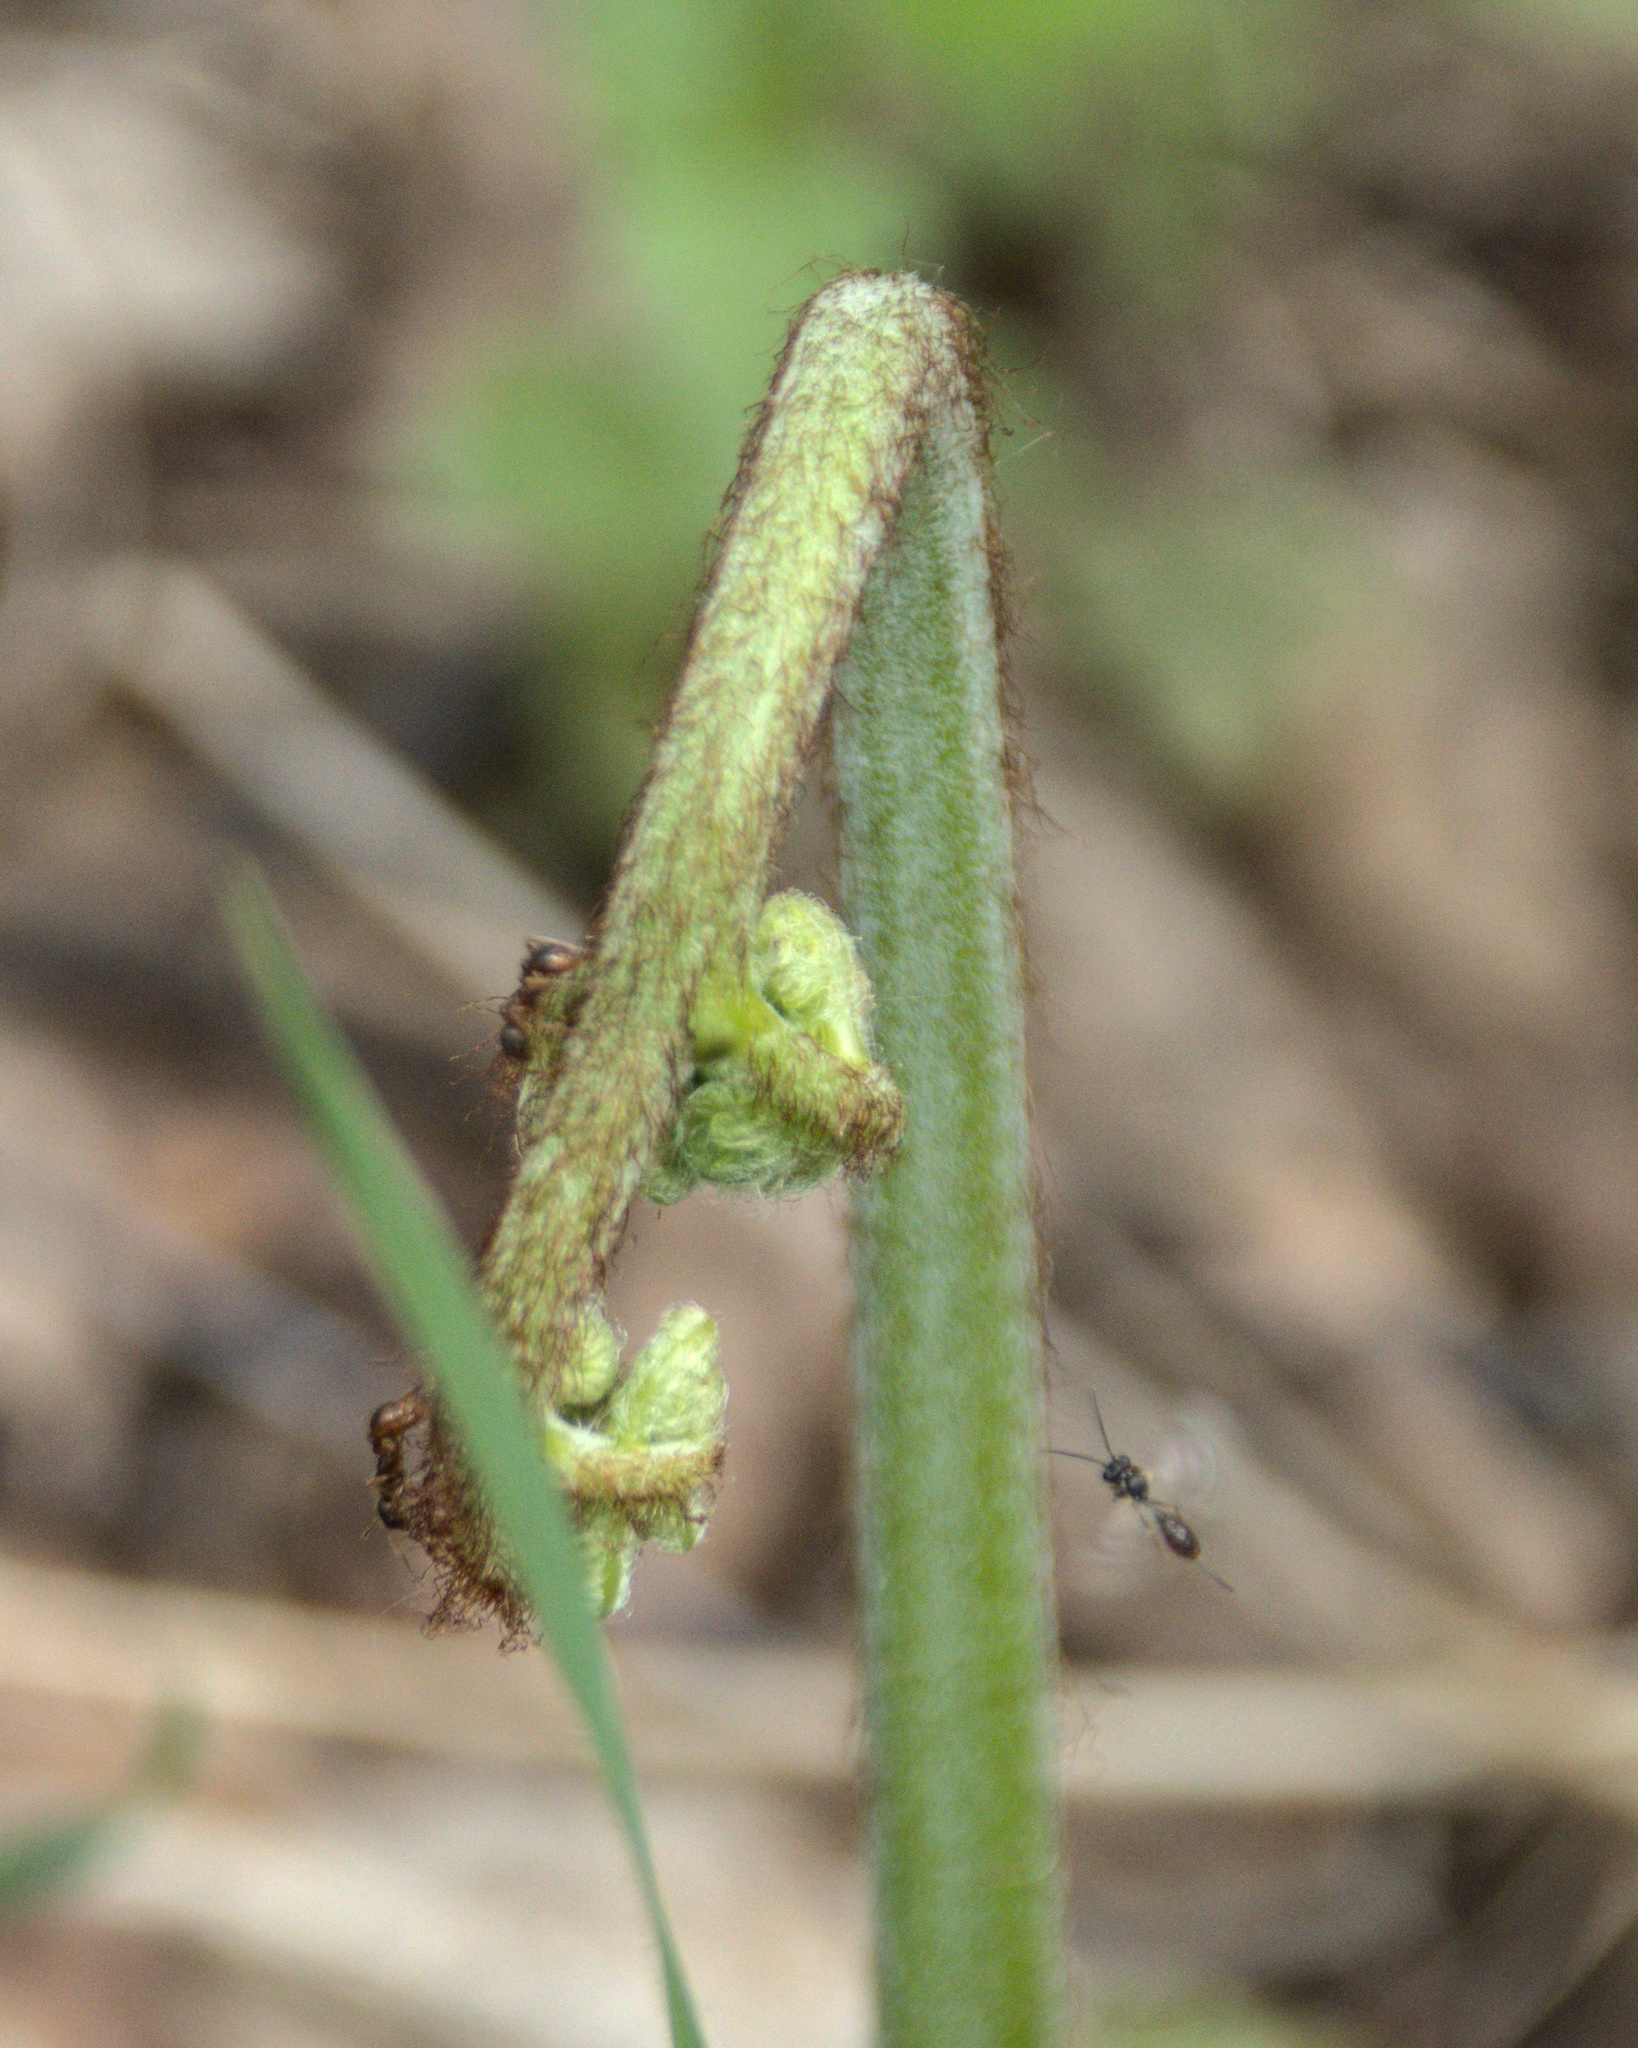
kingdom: Plantae
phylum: Tracheophyta
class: Polypodiopsida
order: Polypodiales
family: Dennstaedtiaceae
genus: Pteridium
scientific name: Pteridium aquilinum
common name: Bracken
